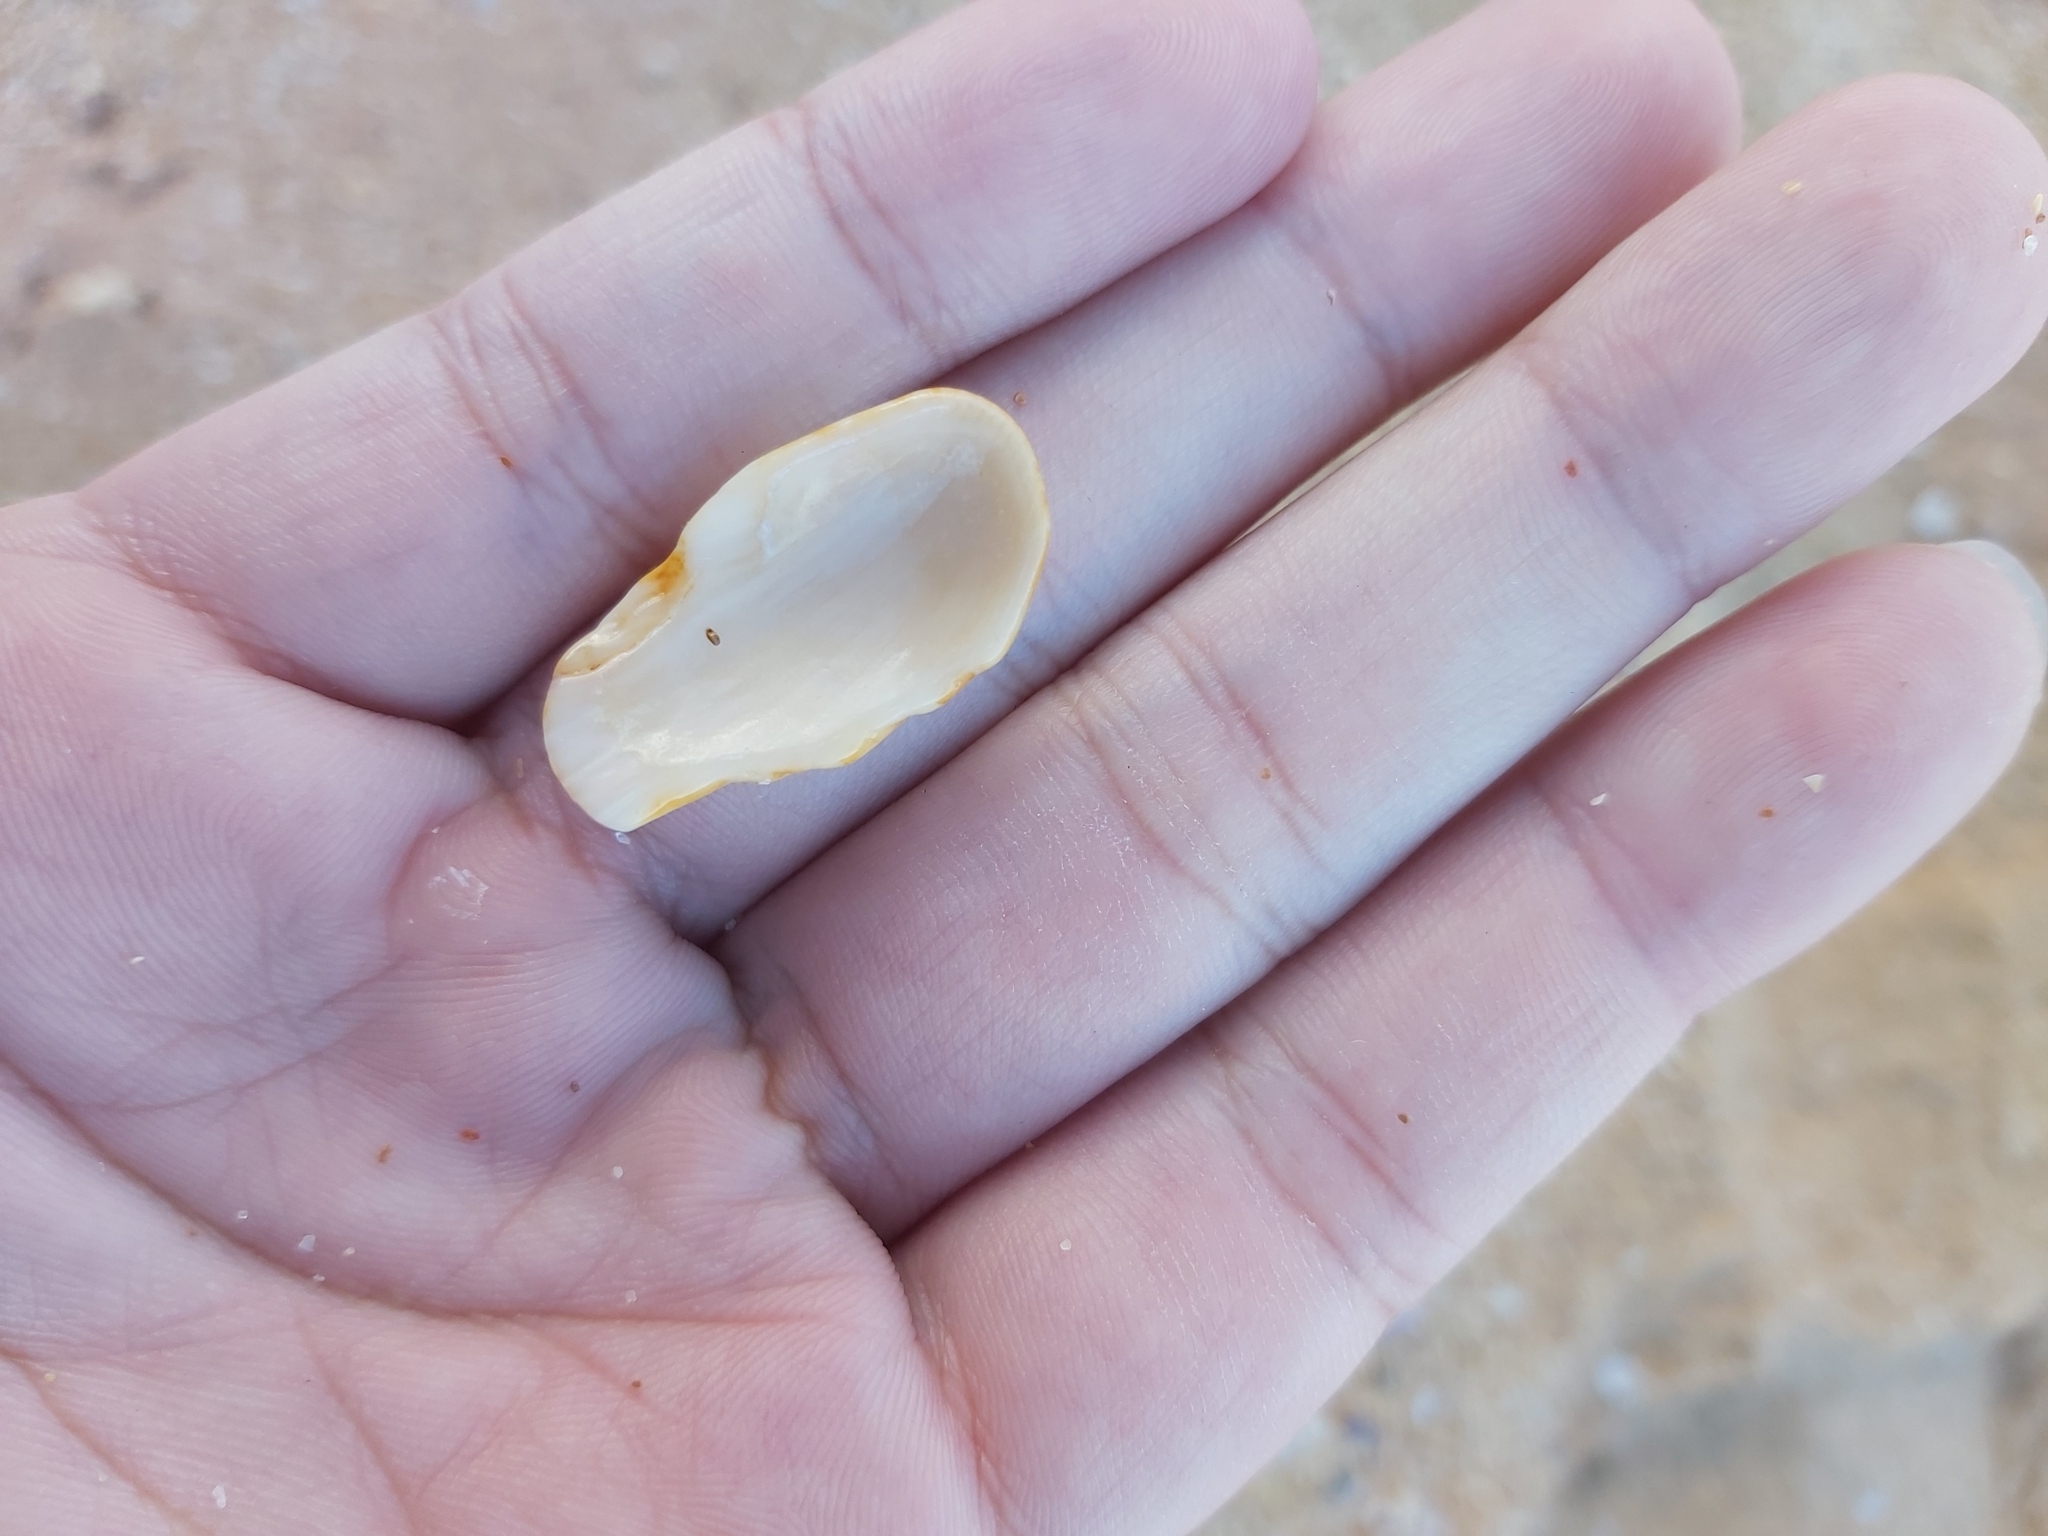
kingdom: Animalia
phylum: Mollusca
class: Bivalvia
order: Arcida
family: Arcidae
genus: Anadara
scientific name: Anadara trapezia
